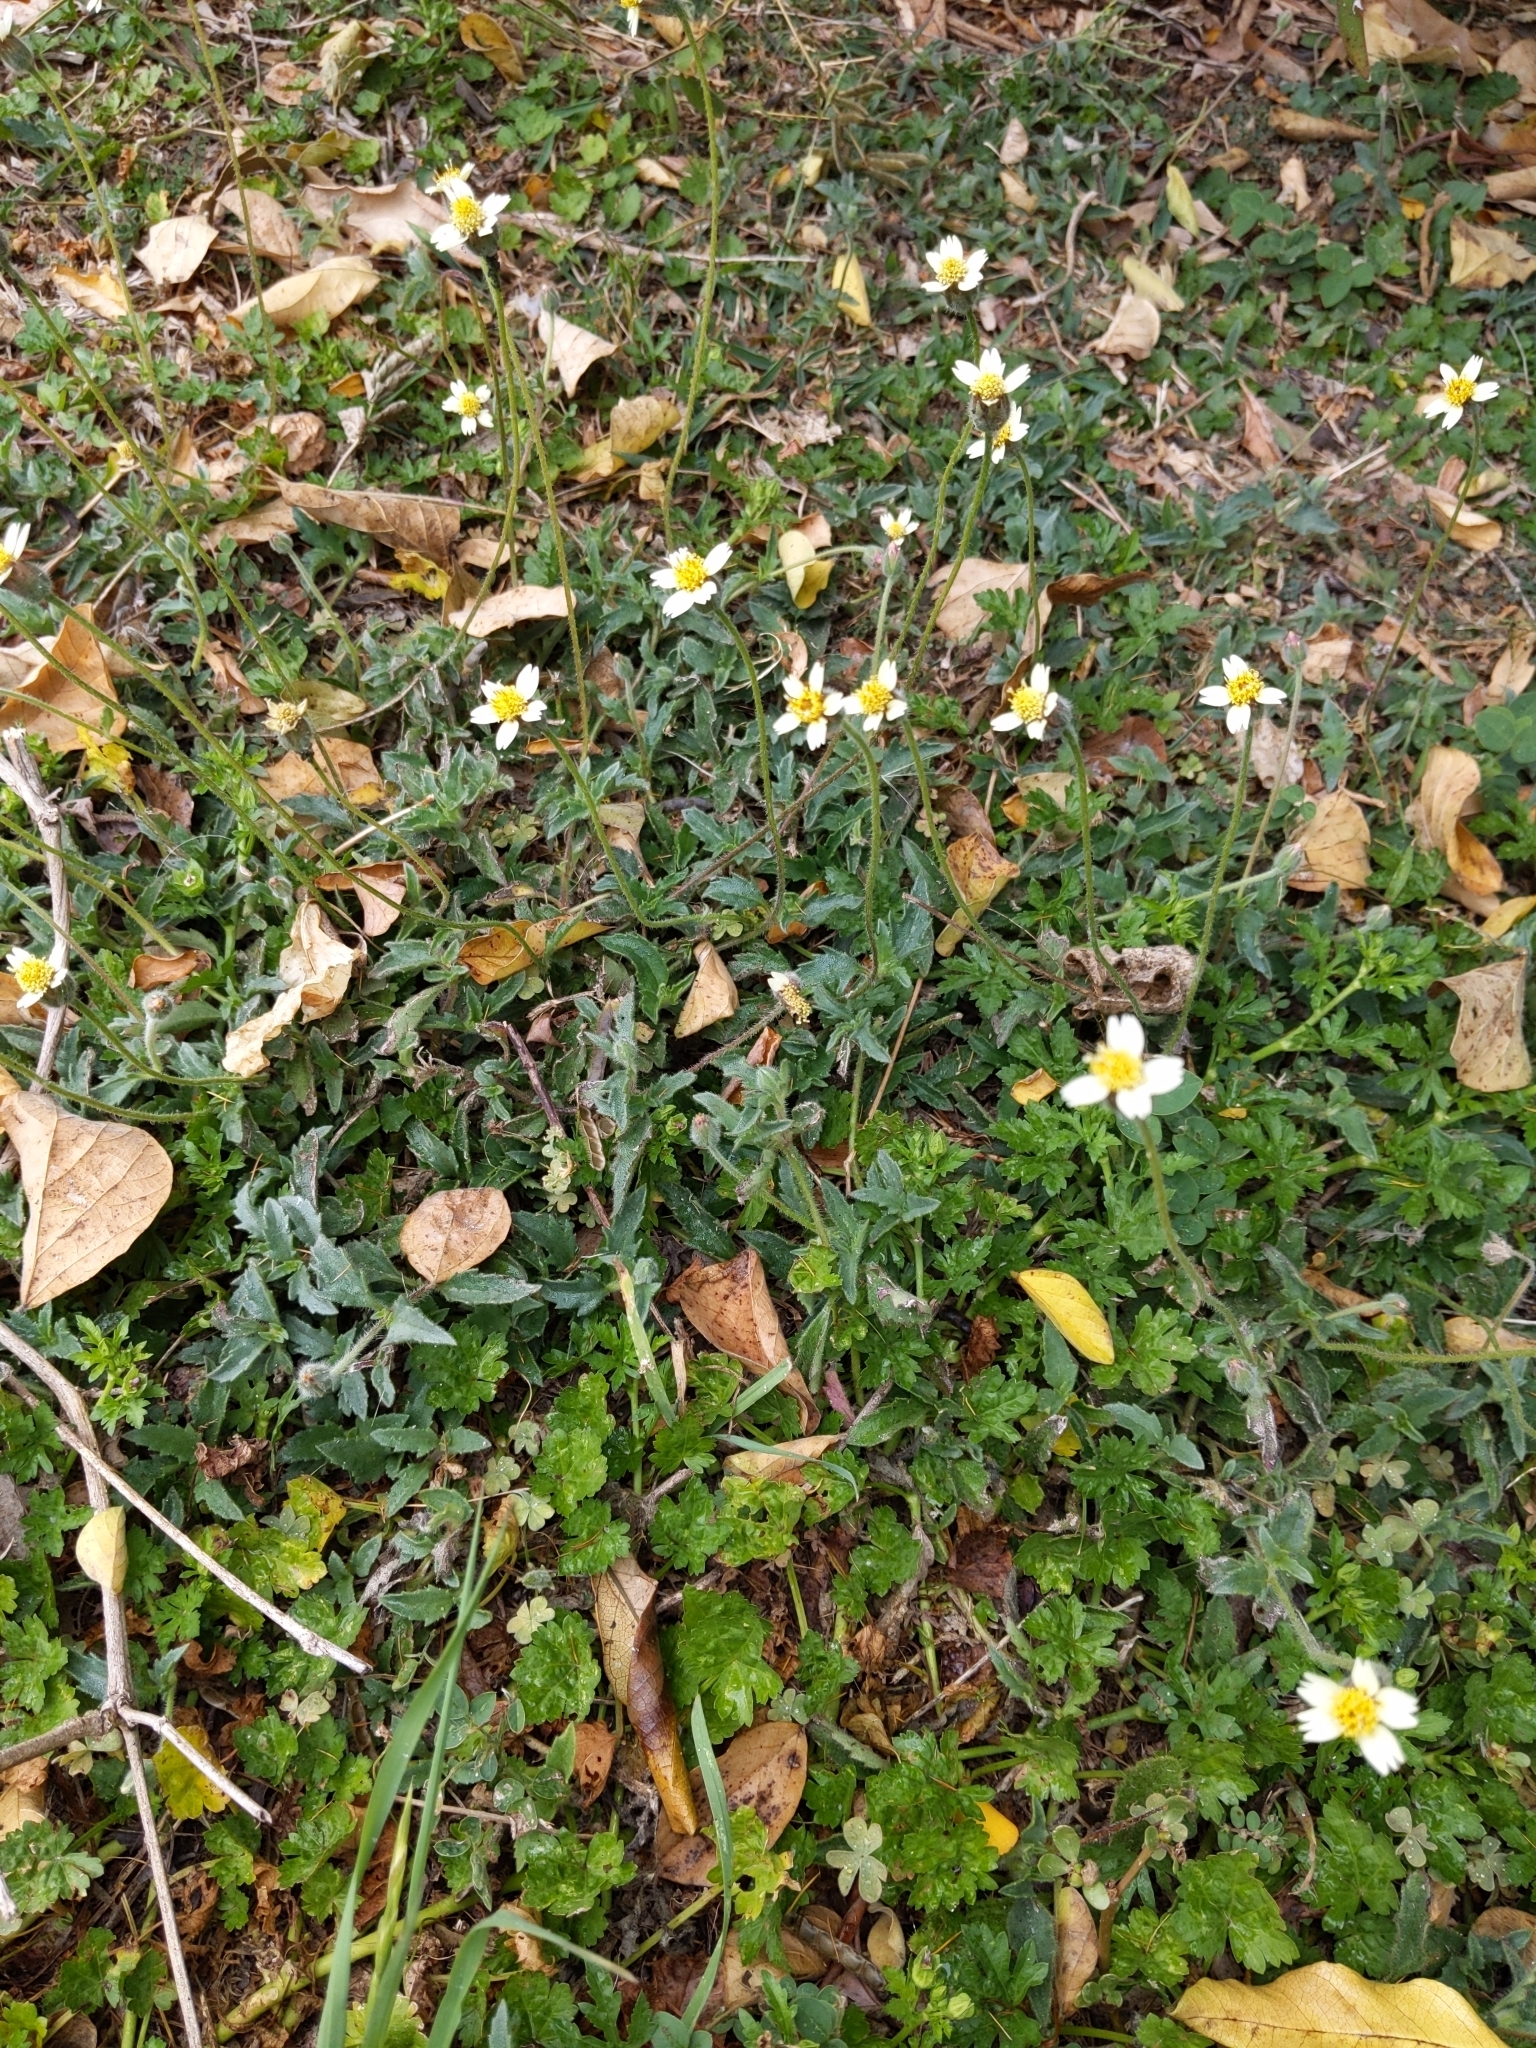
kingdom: Plantae
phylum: Tracheophyta
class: Magnoliopsida
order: Asterales
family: Asteraceae
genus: Tridax
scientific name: Tridax procumbens
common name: Coatbuttons
